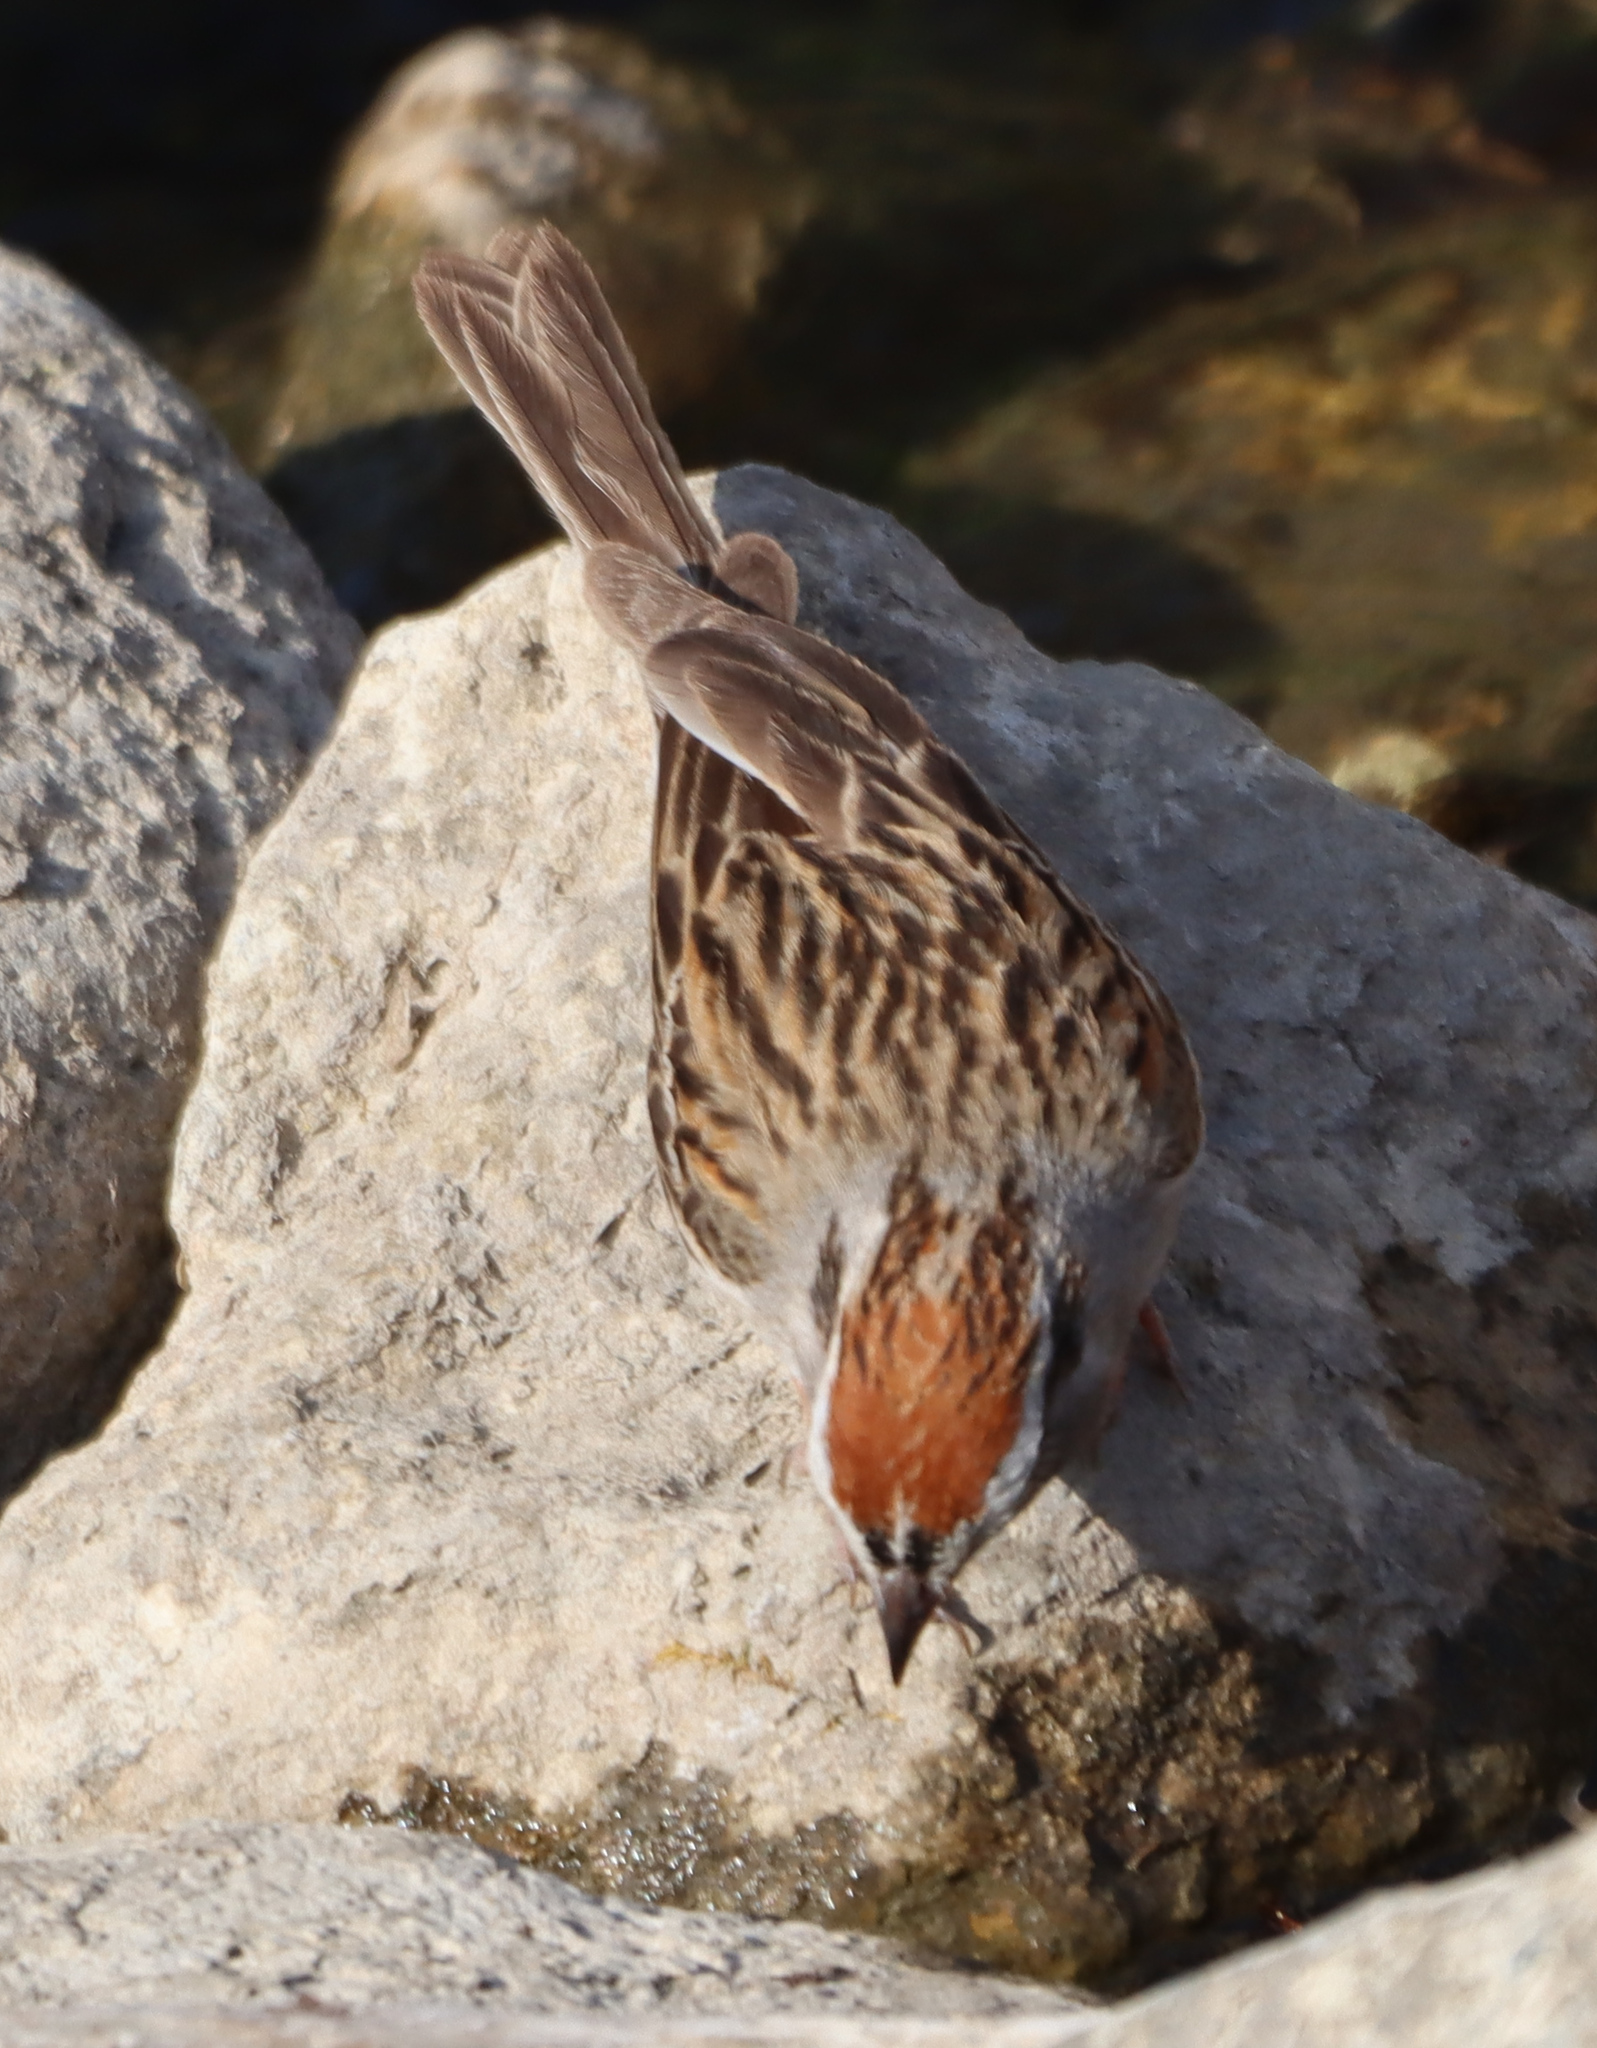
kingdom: Animalia
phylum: Chordata
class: Aves
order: Passeriformes
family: Passerellidae
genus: Spizella
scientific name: Spizella passerina
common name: Chipping sparrow
